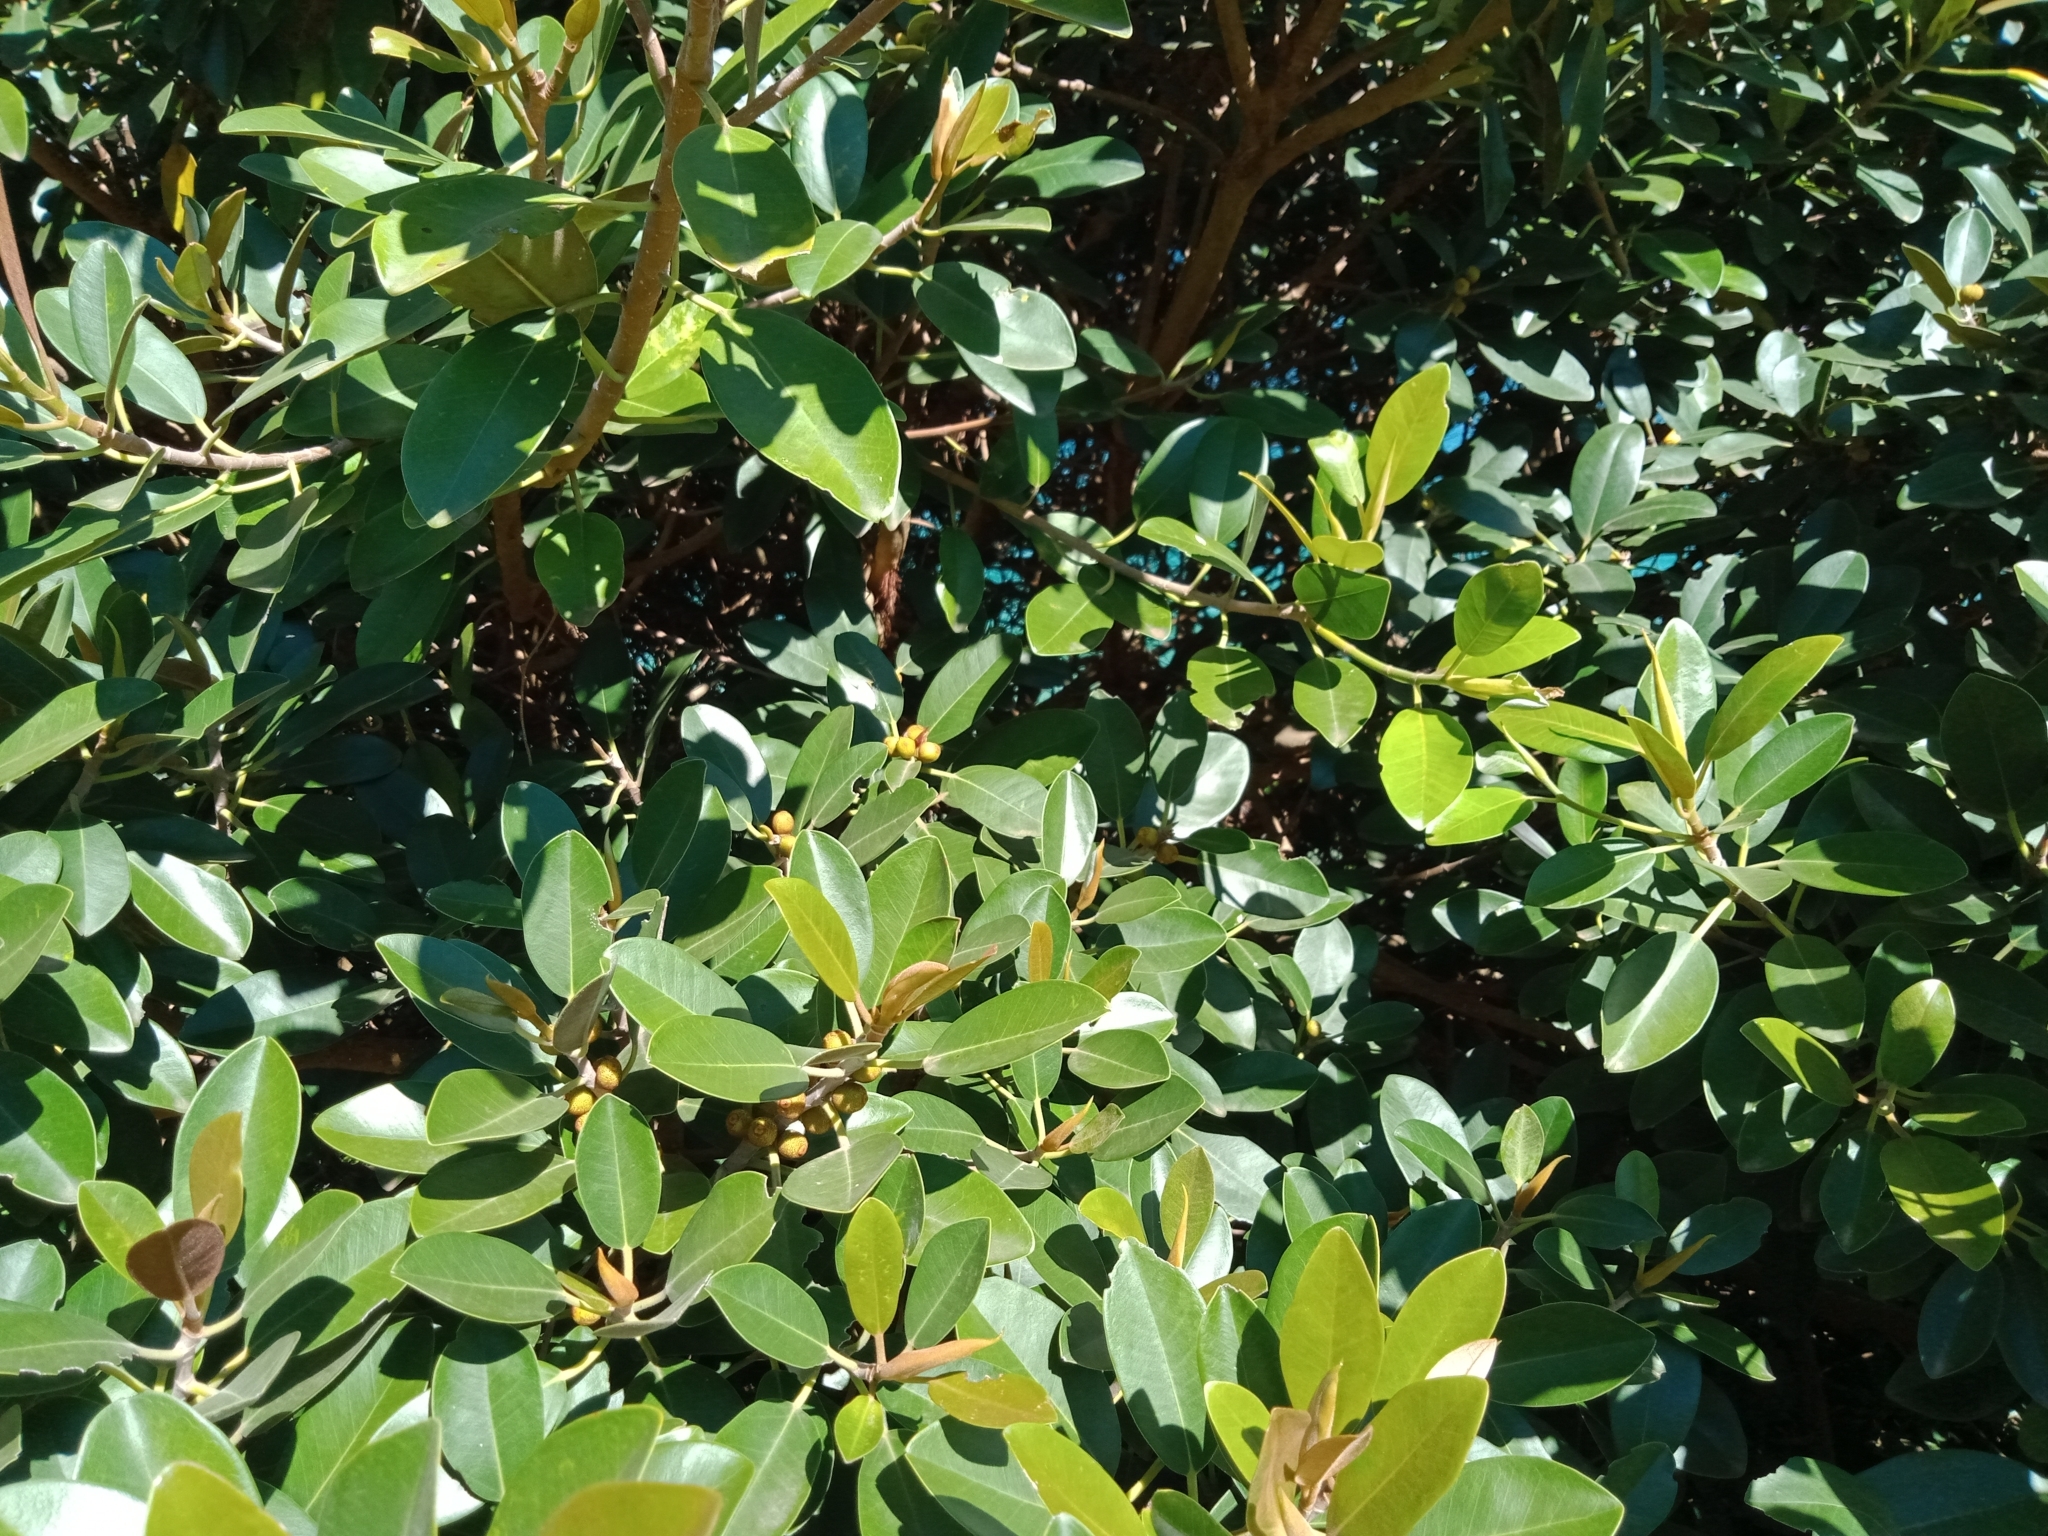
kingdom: Plantae
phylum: Tracheophyta
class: Magnoliopsida
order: Rosales
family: Moraceae
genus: Ficus
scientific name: Ficus rubiginosa
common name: Port jackson fig
